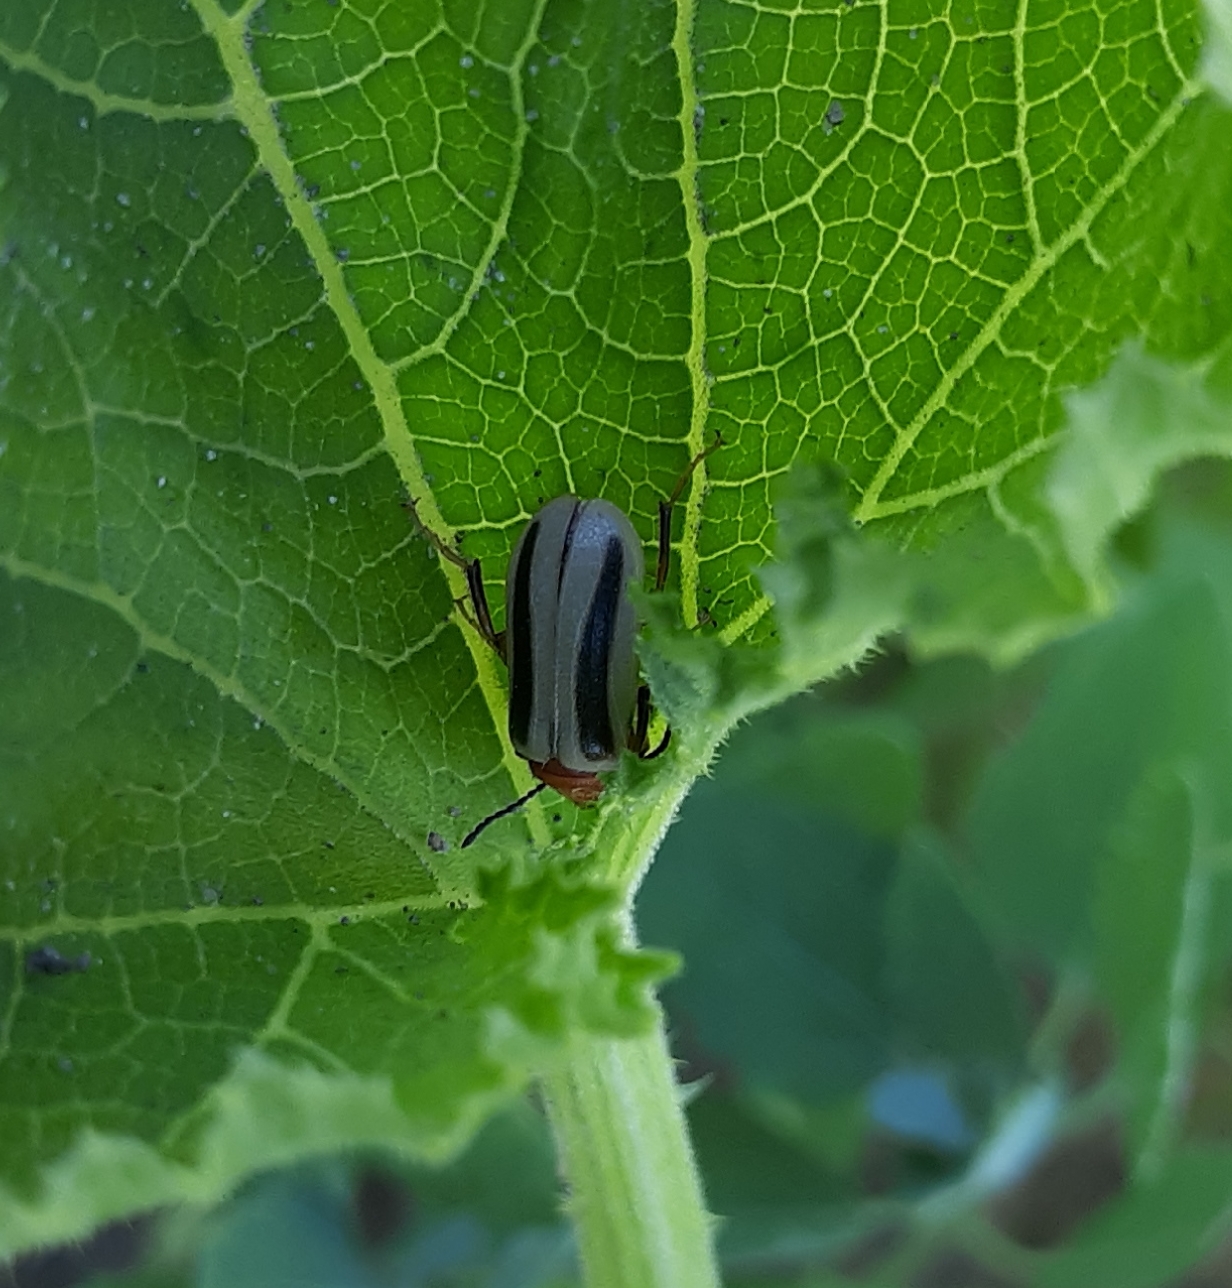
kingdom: Animalia
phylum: Arthropoda
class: Insecta
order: Coleoptera
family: Meloidae
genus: Zonitis
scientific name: Zonitis bilineata
